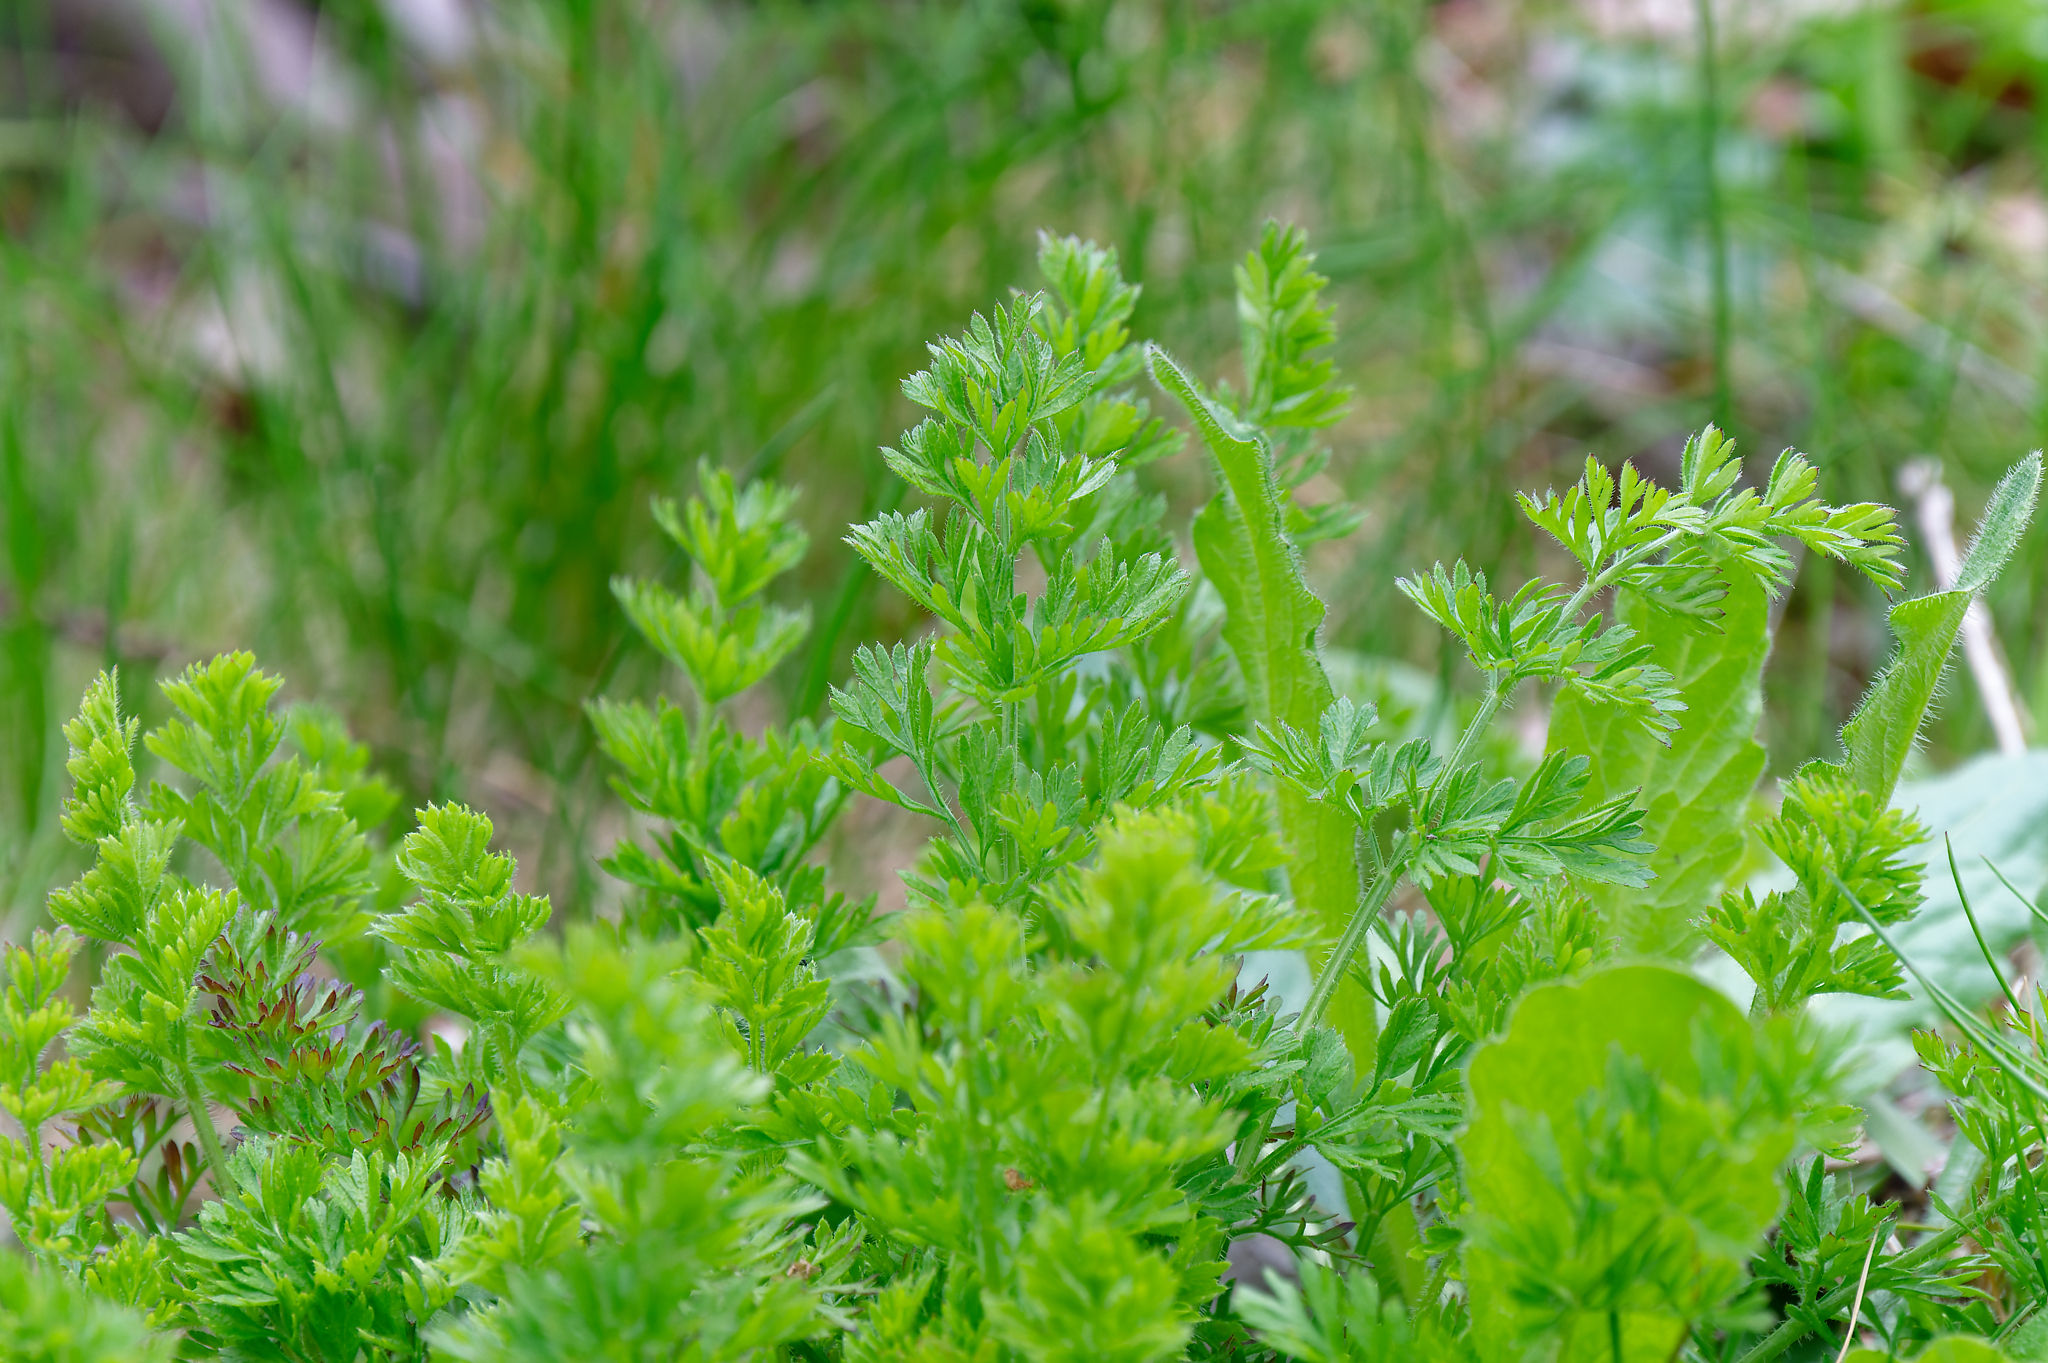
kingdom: Plantae
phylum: Tracheophyta
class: Magnoliopsida
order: Apiales
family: Apiaceae
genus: Daucus
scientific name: Daucus carota
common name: Wild carrot
